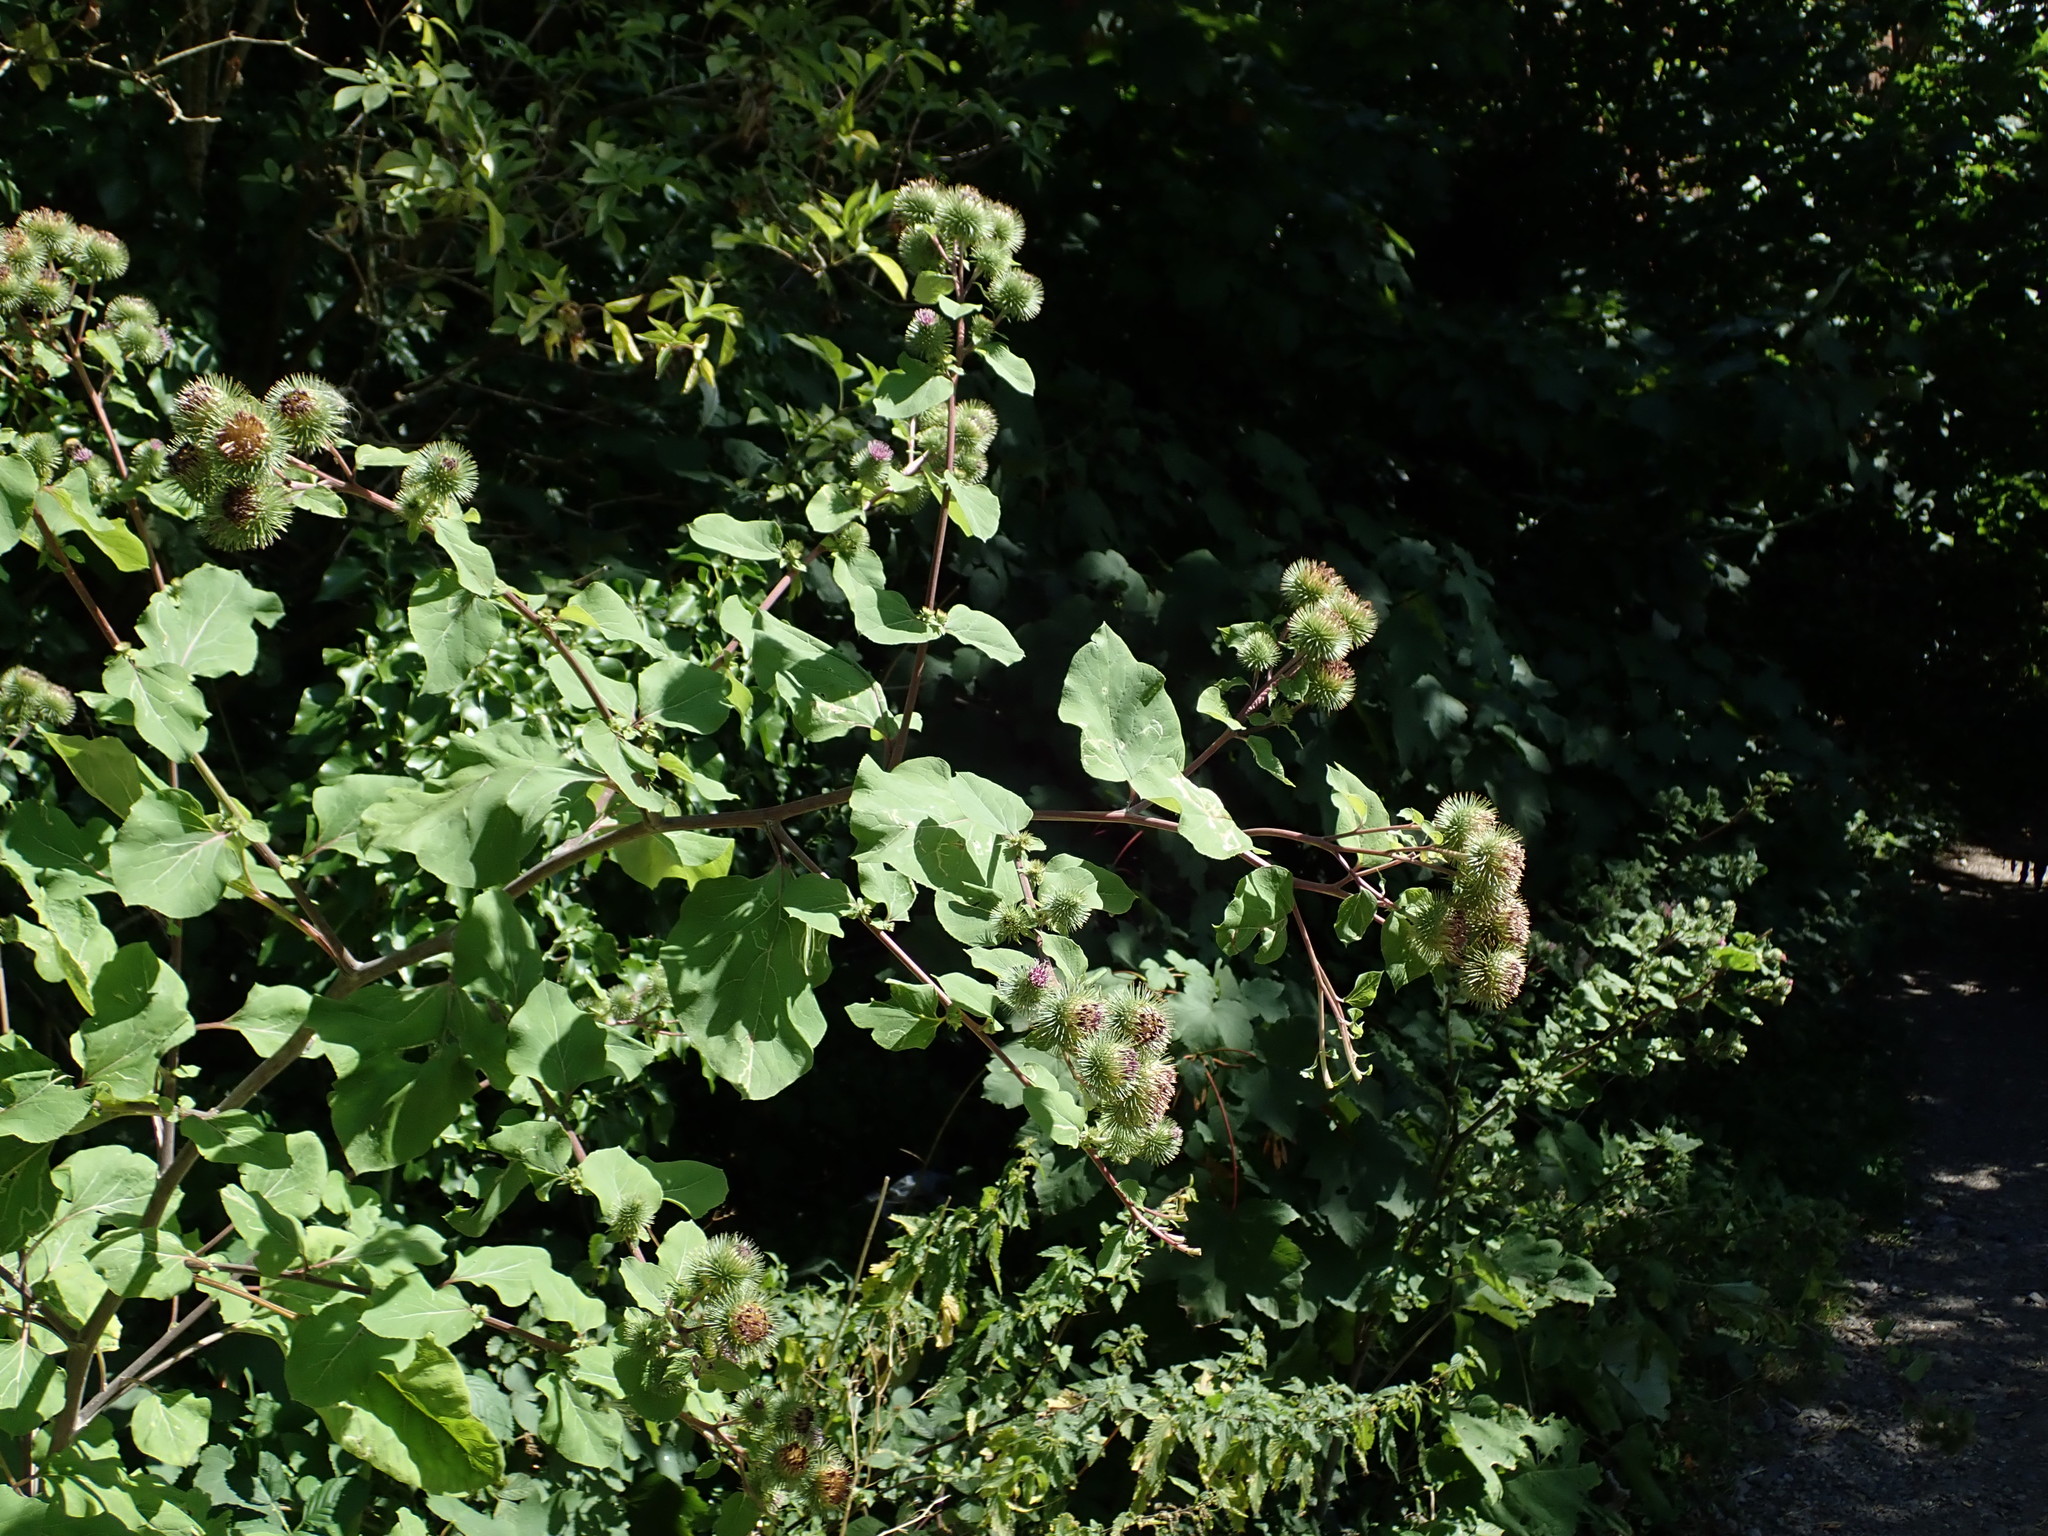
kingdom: Plantae
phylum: Tracheophyta
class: Magnoliopsida
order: Asterales
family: Asteraceae
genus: Arctium
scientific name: Arctium lappa
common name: Greater burdock
